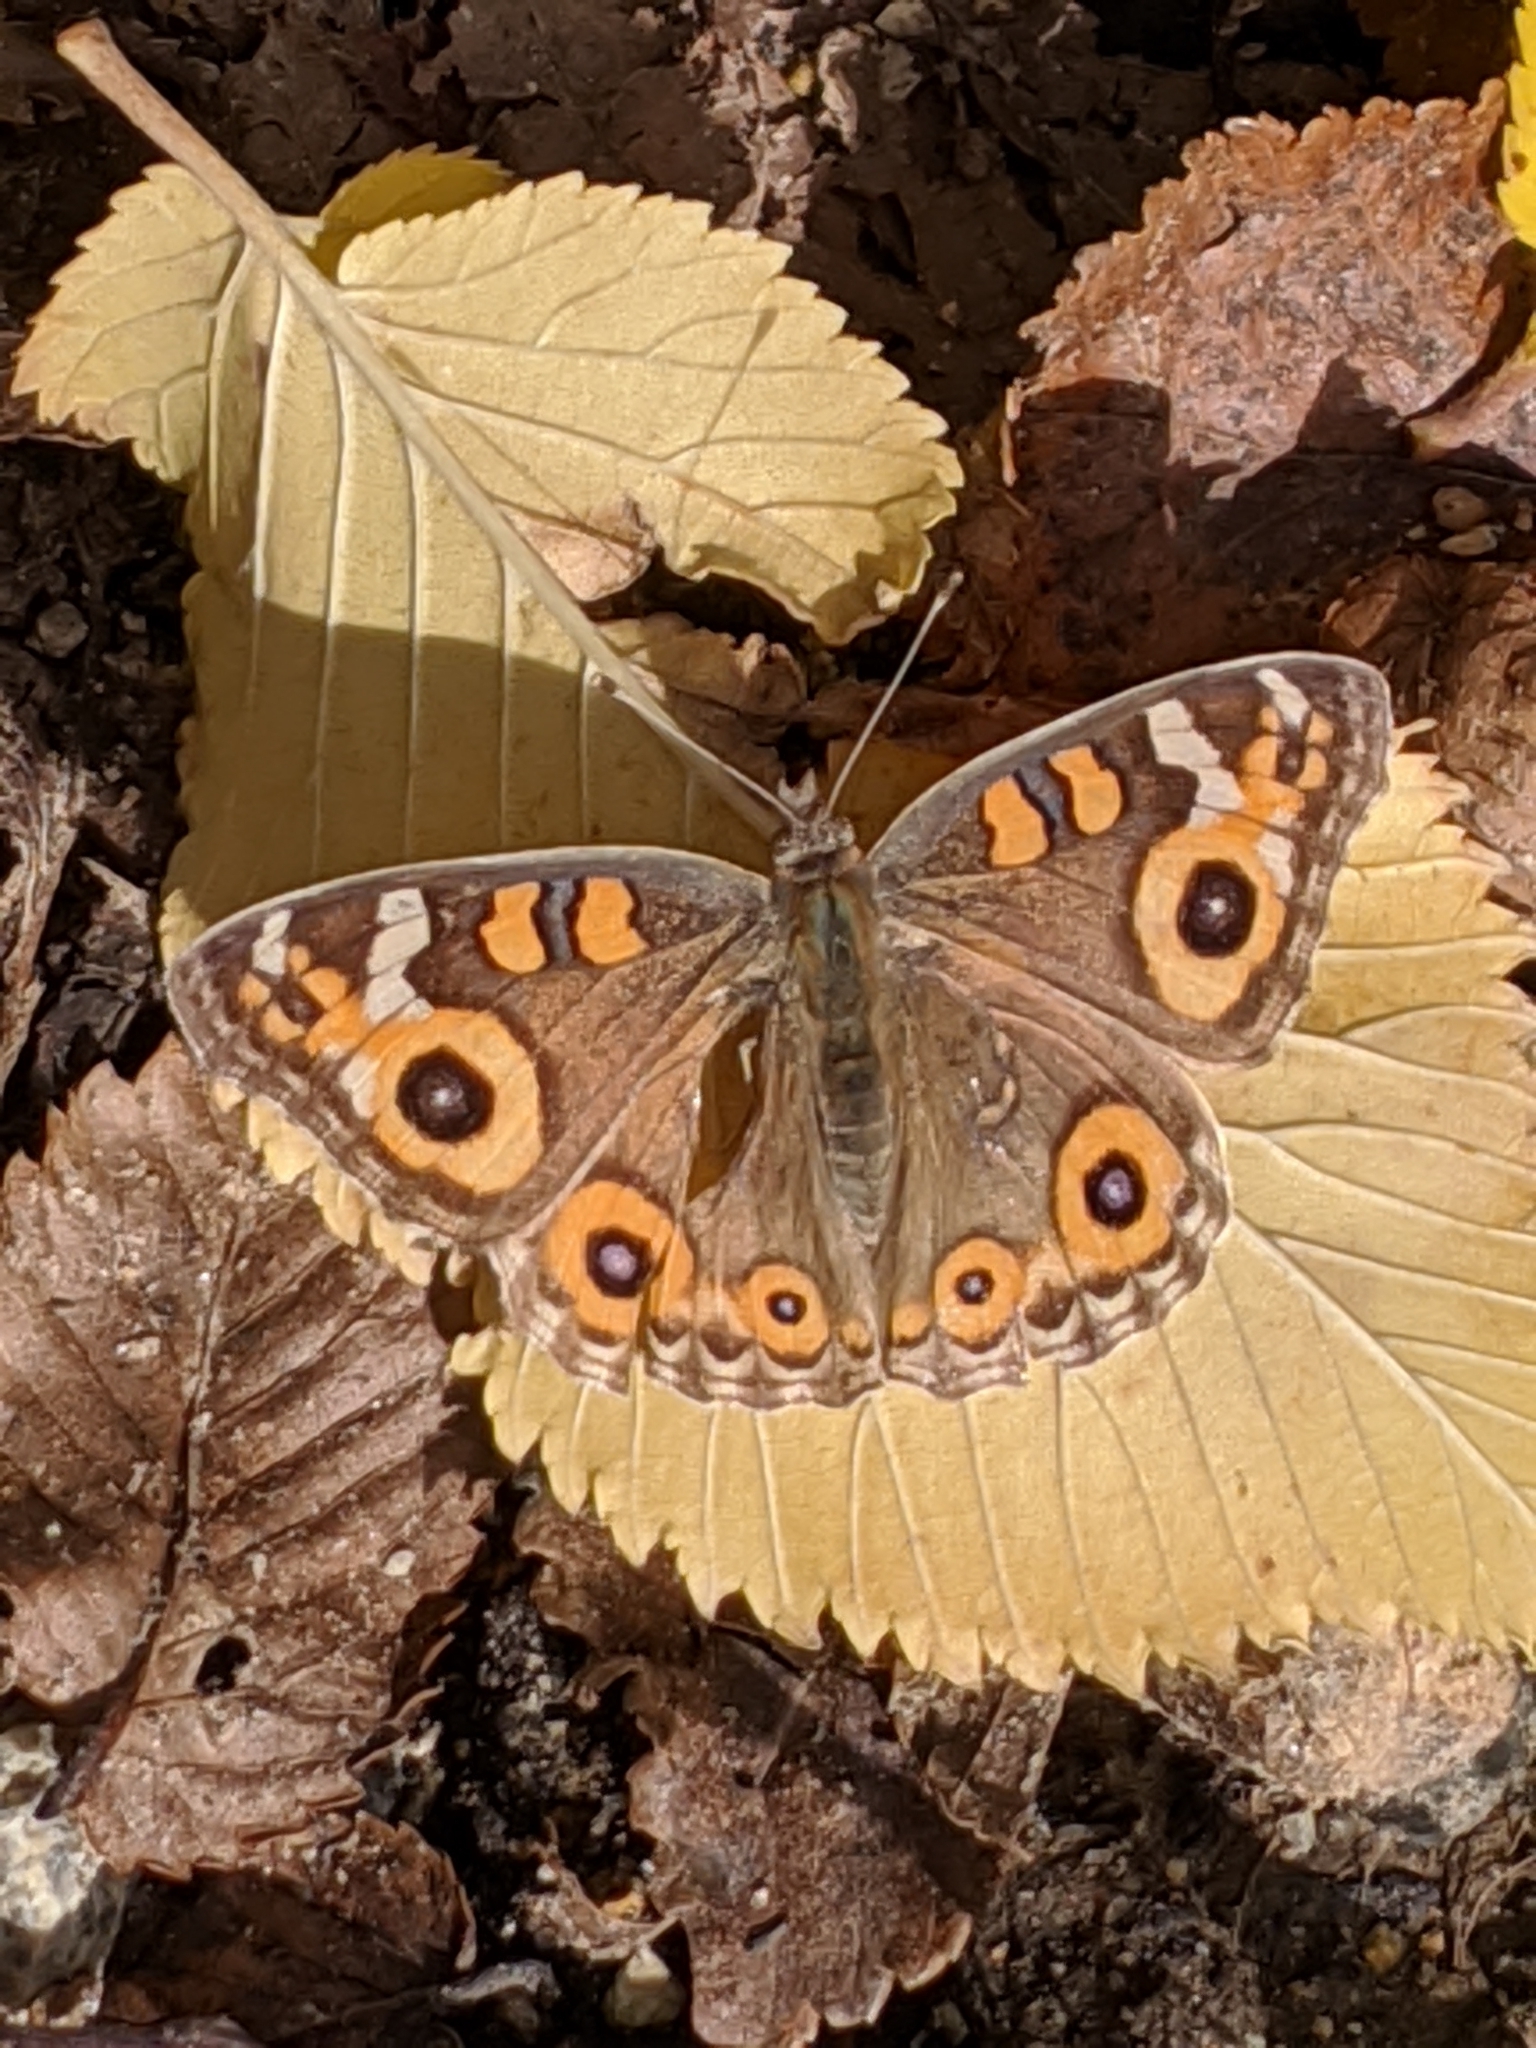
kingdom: Animalia
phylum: Arthropoda
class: Insecta
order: Lepidoptera
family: Nymphalidae
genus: Junonia
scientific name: Junonia villida
